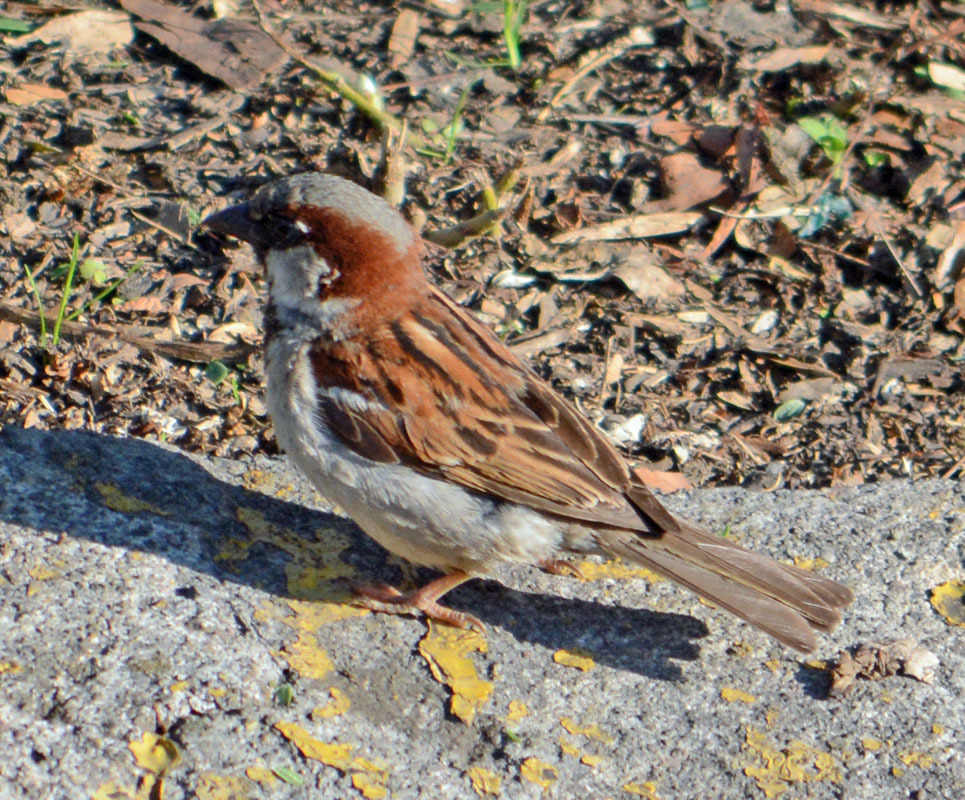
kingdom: Animalia
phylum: Chordata
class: Aves
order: Passeriformes
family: Passeridae
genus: Passer
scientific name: Passer domesticus
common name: House sparrow
